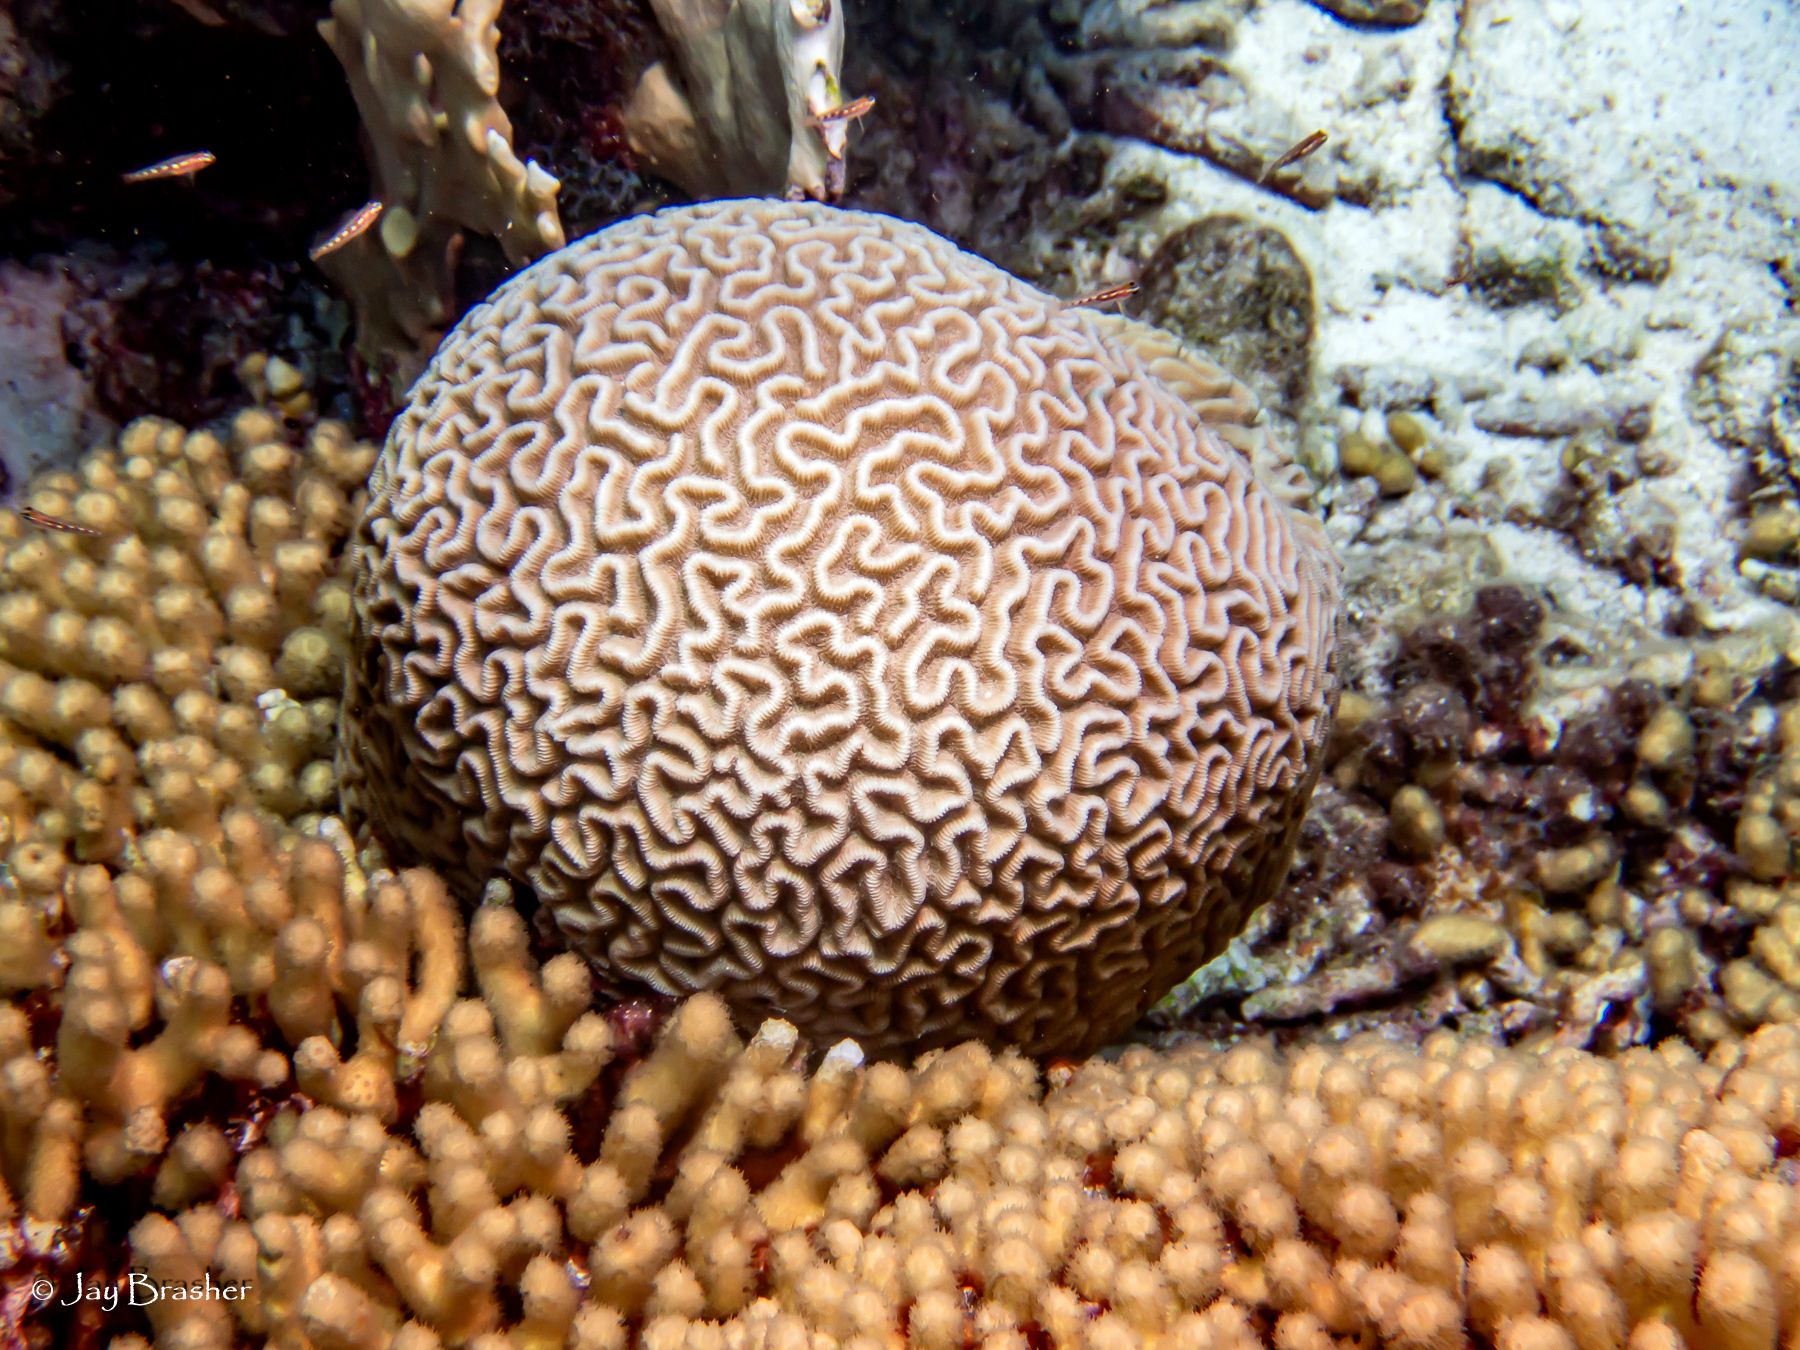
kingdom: Animalia
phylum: Cnidaria
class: Anthozoa
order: Scleractinia
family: Faviidae
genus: Pseudodiploria
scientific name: Pseudodiploria strigosa
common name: Symmetrical brain coral
